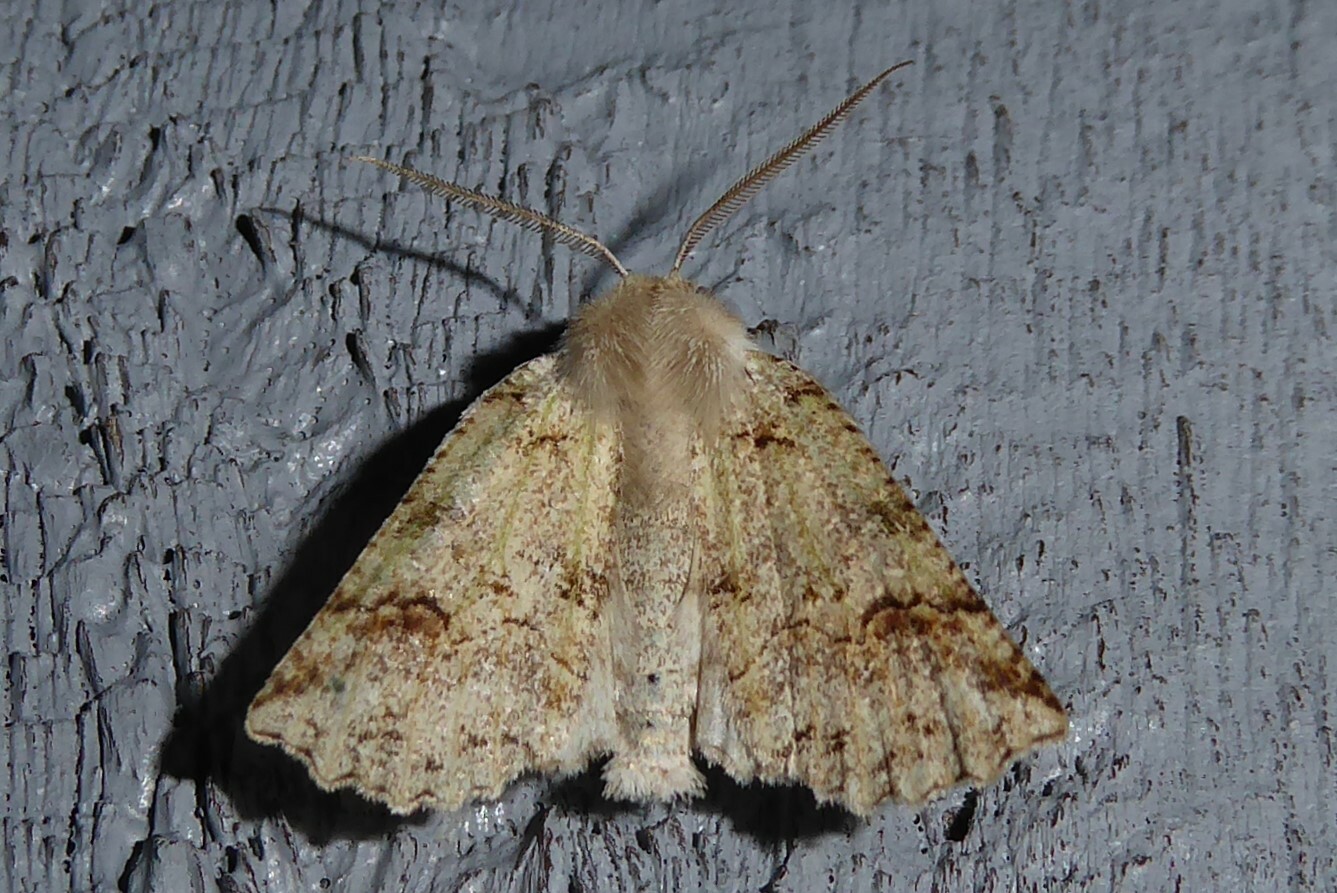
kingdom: Animalia
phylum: Arthropoda
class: Insecta
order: Lepidoptera
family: Geometridae
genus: Declana
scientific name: Declana floccosa
